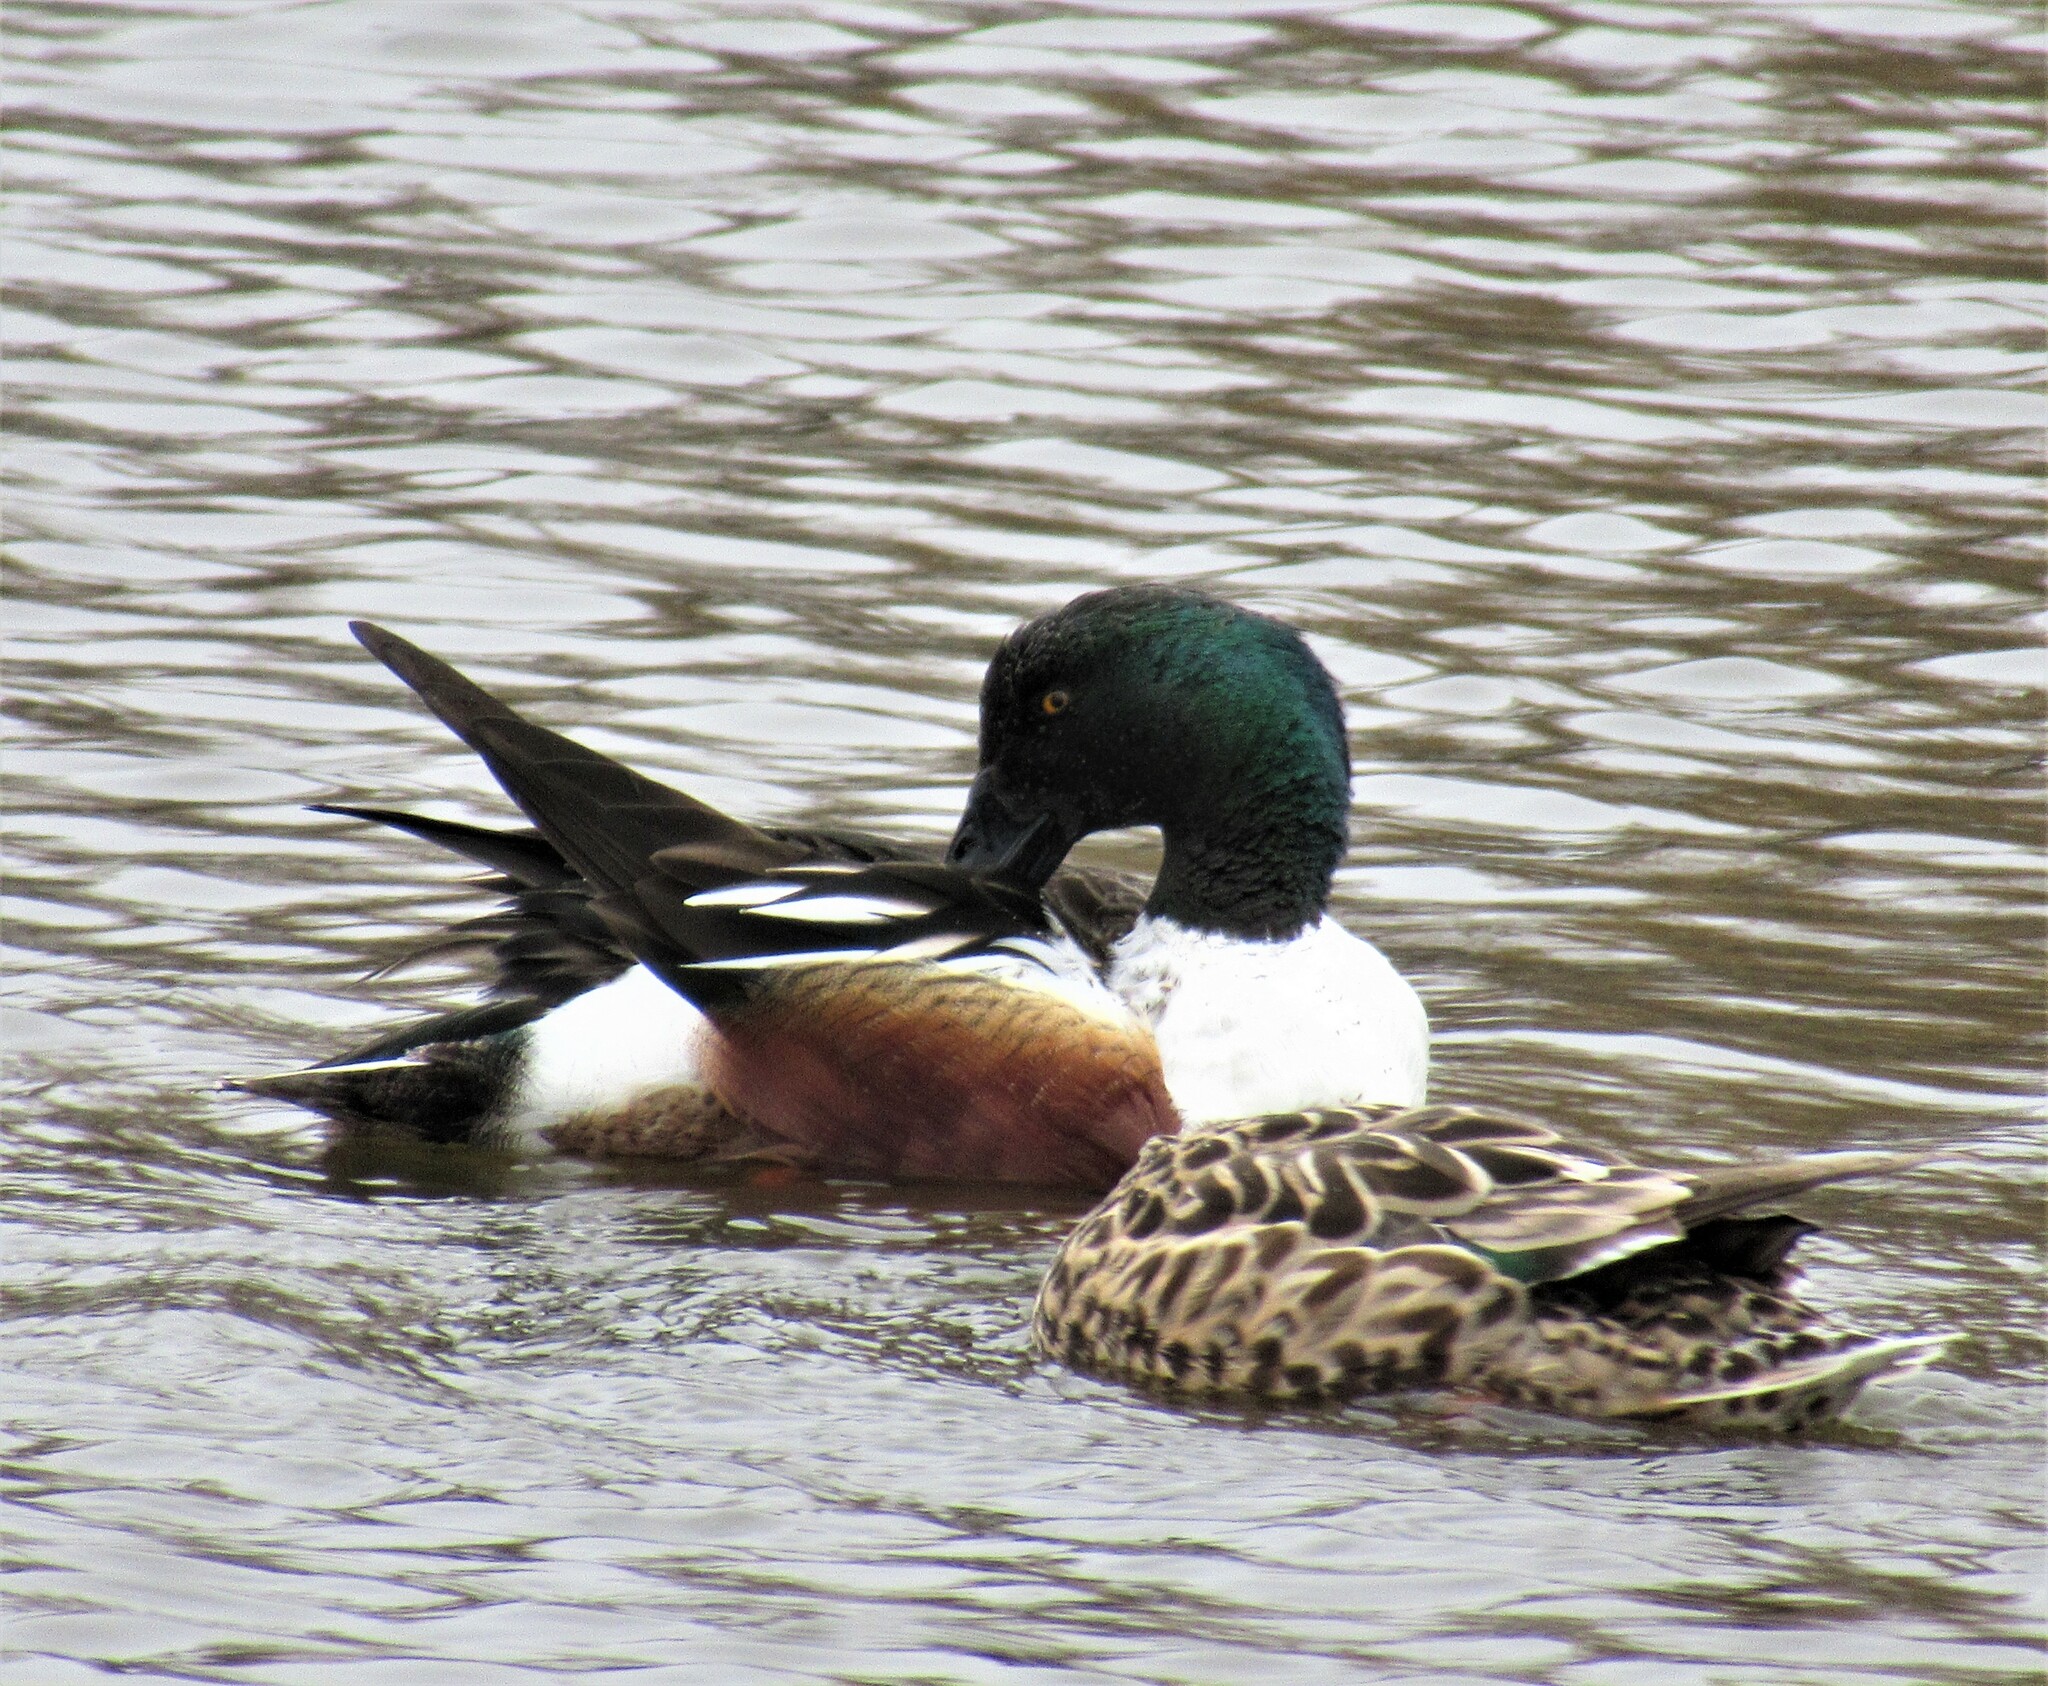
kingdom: Animalia
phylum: Chordata
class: Aves
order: Anseriformes
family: Anatidae
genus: Spatula
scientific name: Spatula clypeata
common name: Northern shoveler
